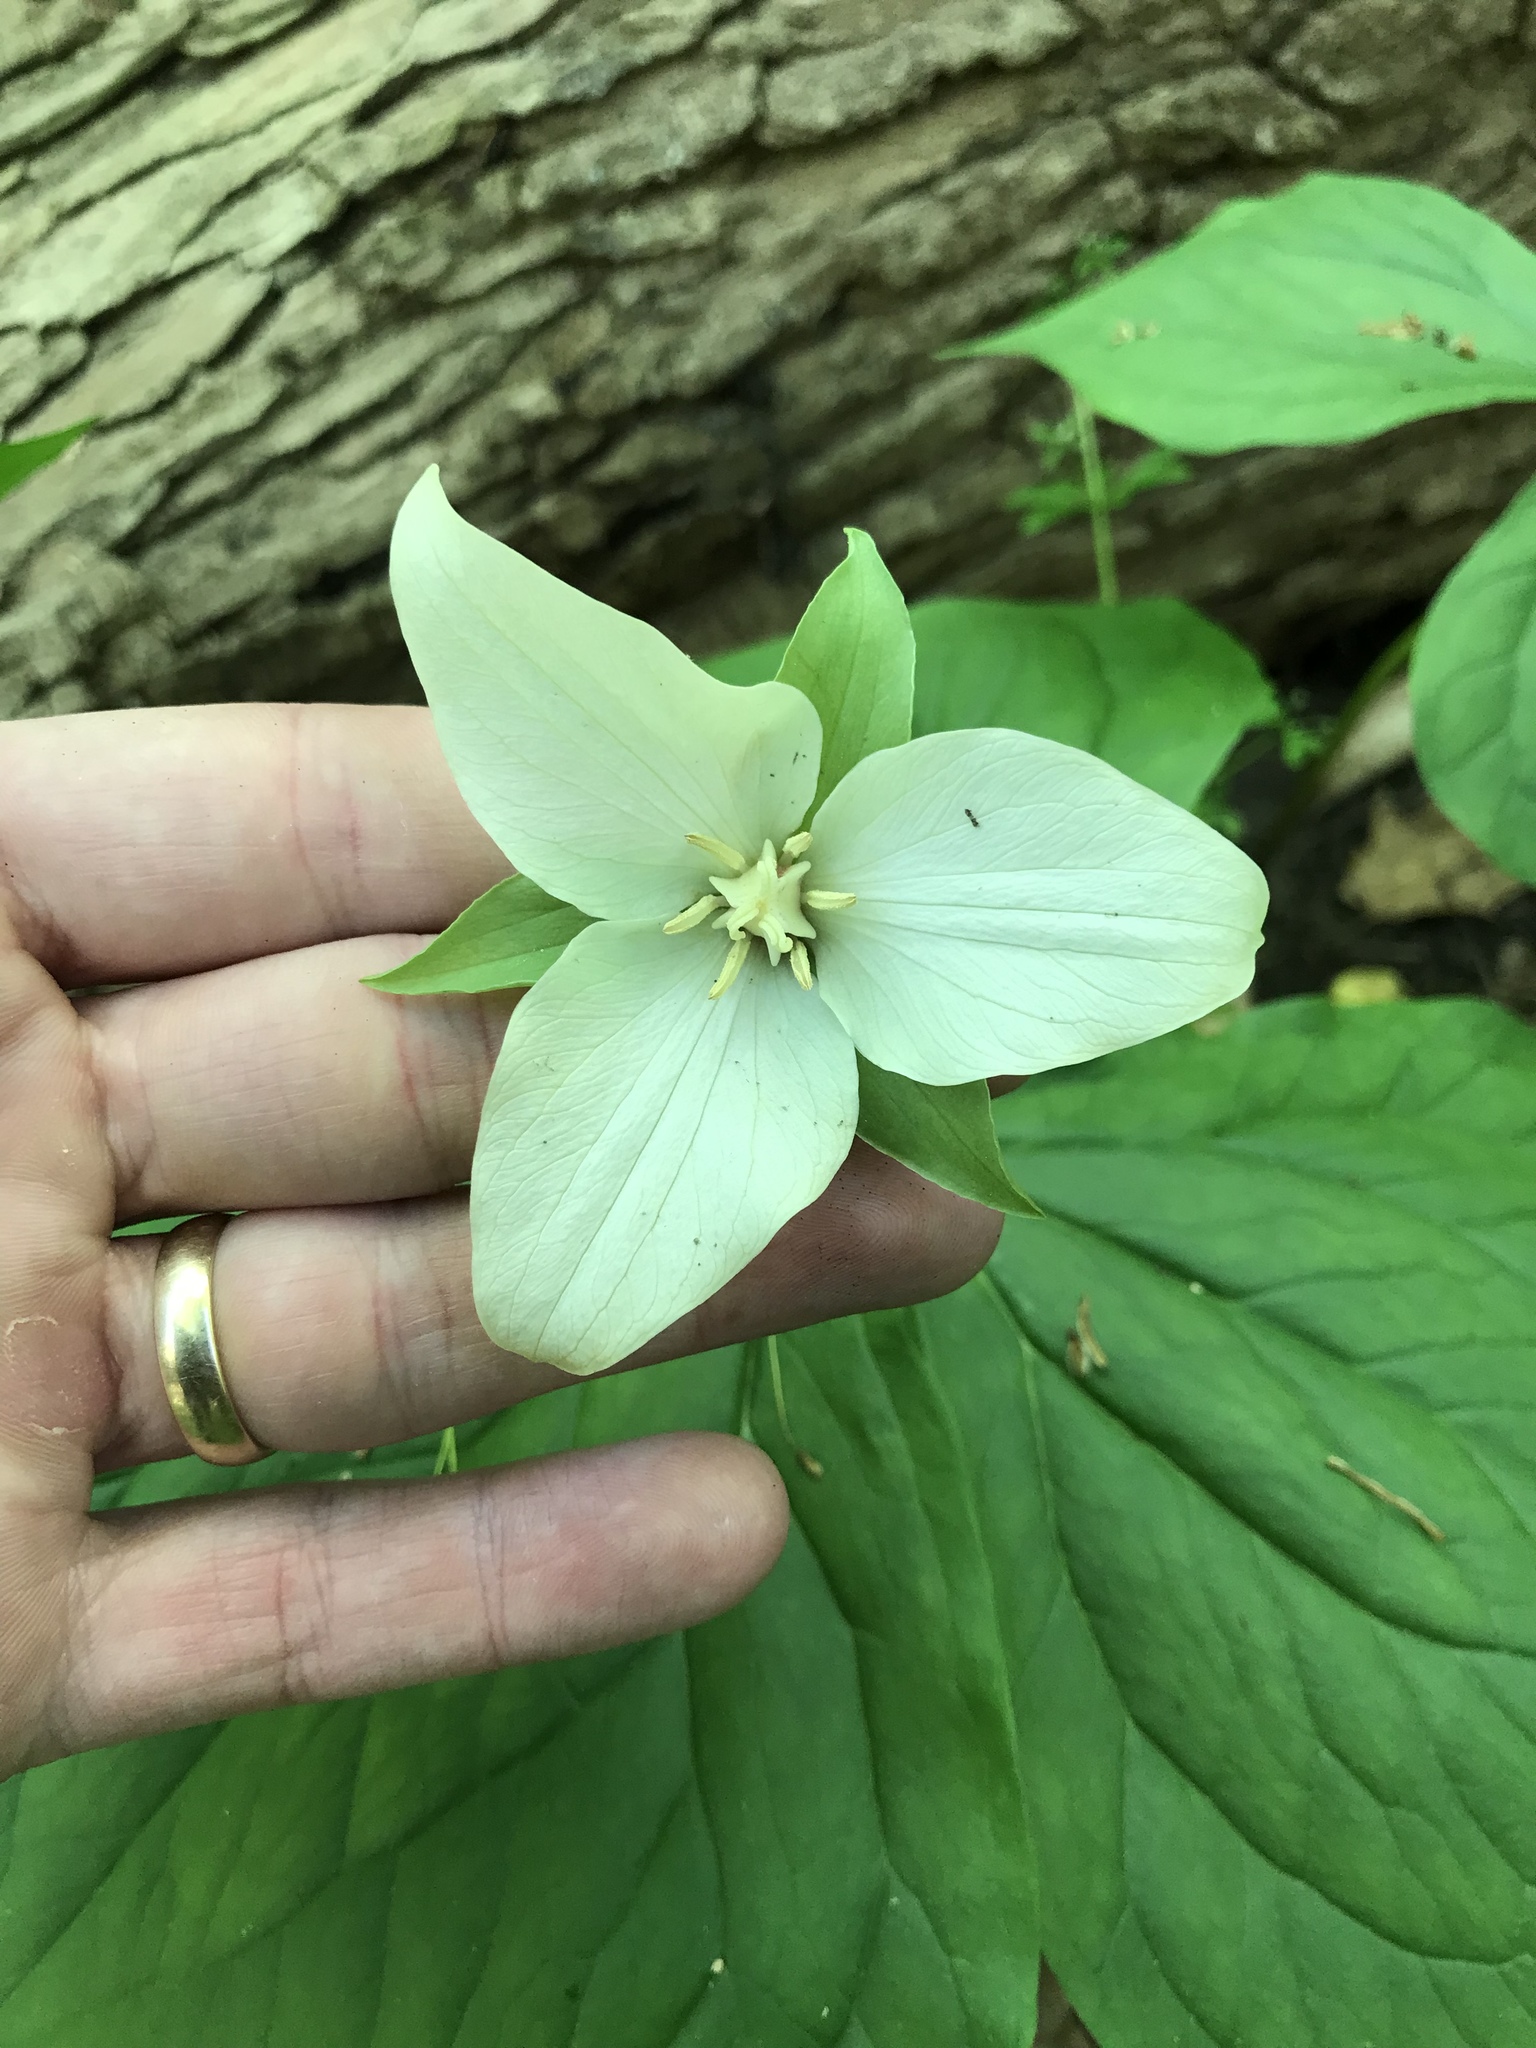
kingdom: Plantae
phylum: Tracheophyta
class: Liliopsida
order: Liliales
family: Melanthiaceae
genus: Trillium
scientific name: Trillium flexipes
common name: Drooping trillium
